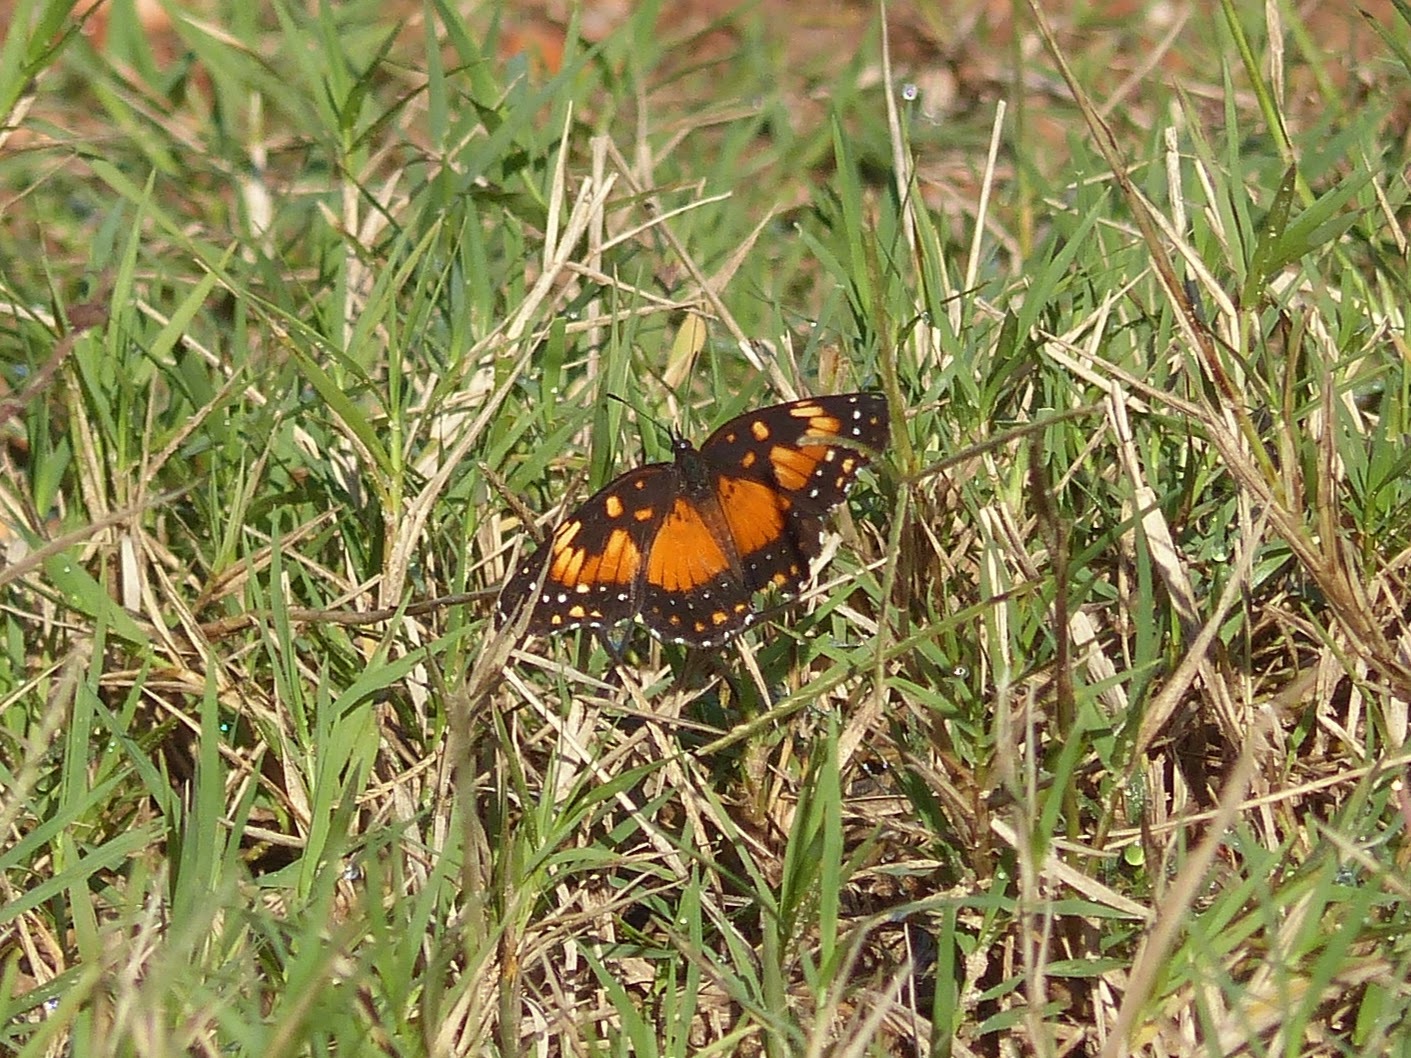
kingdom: Animalia
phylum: Arthropoda
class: Insecta
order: Lepidoptera
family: Nymphalidae
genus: Chlosyne
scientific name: Chlosyne lacinia
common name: Bordered patch
